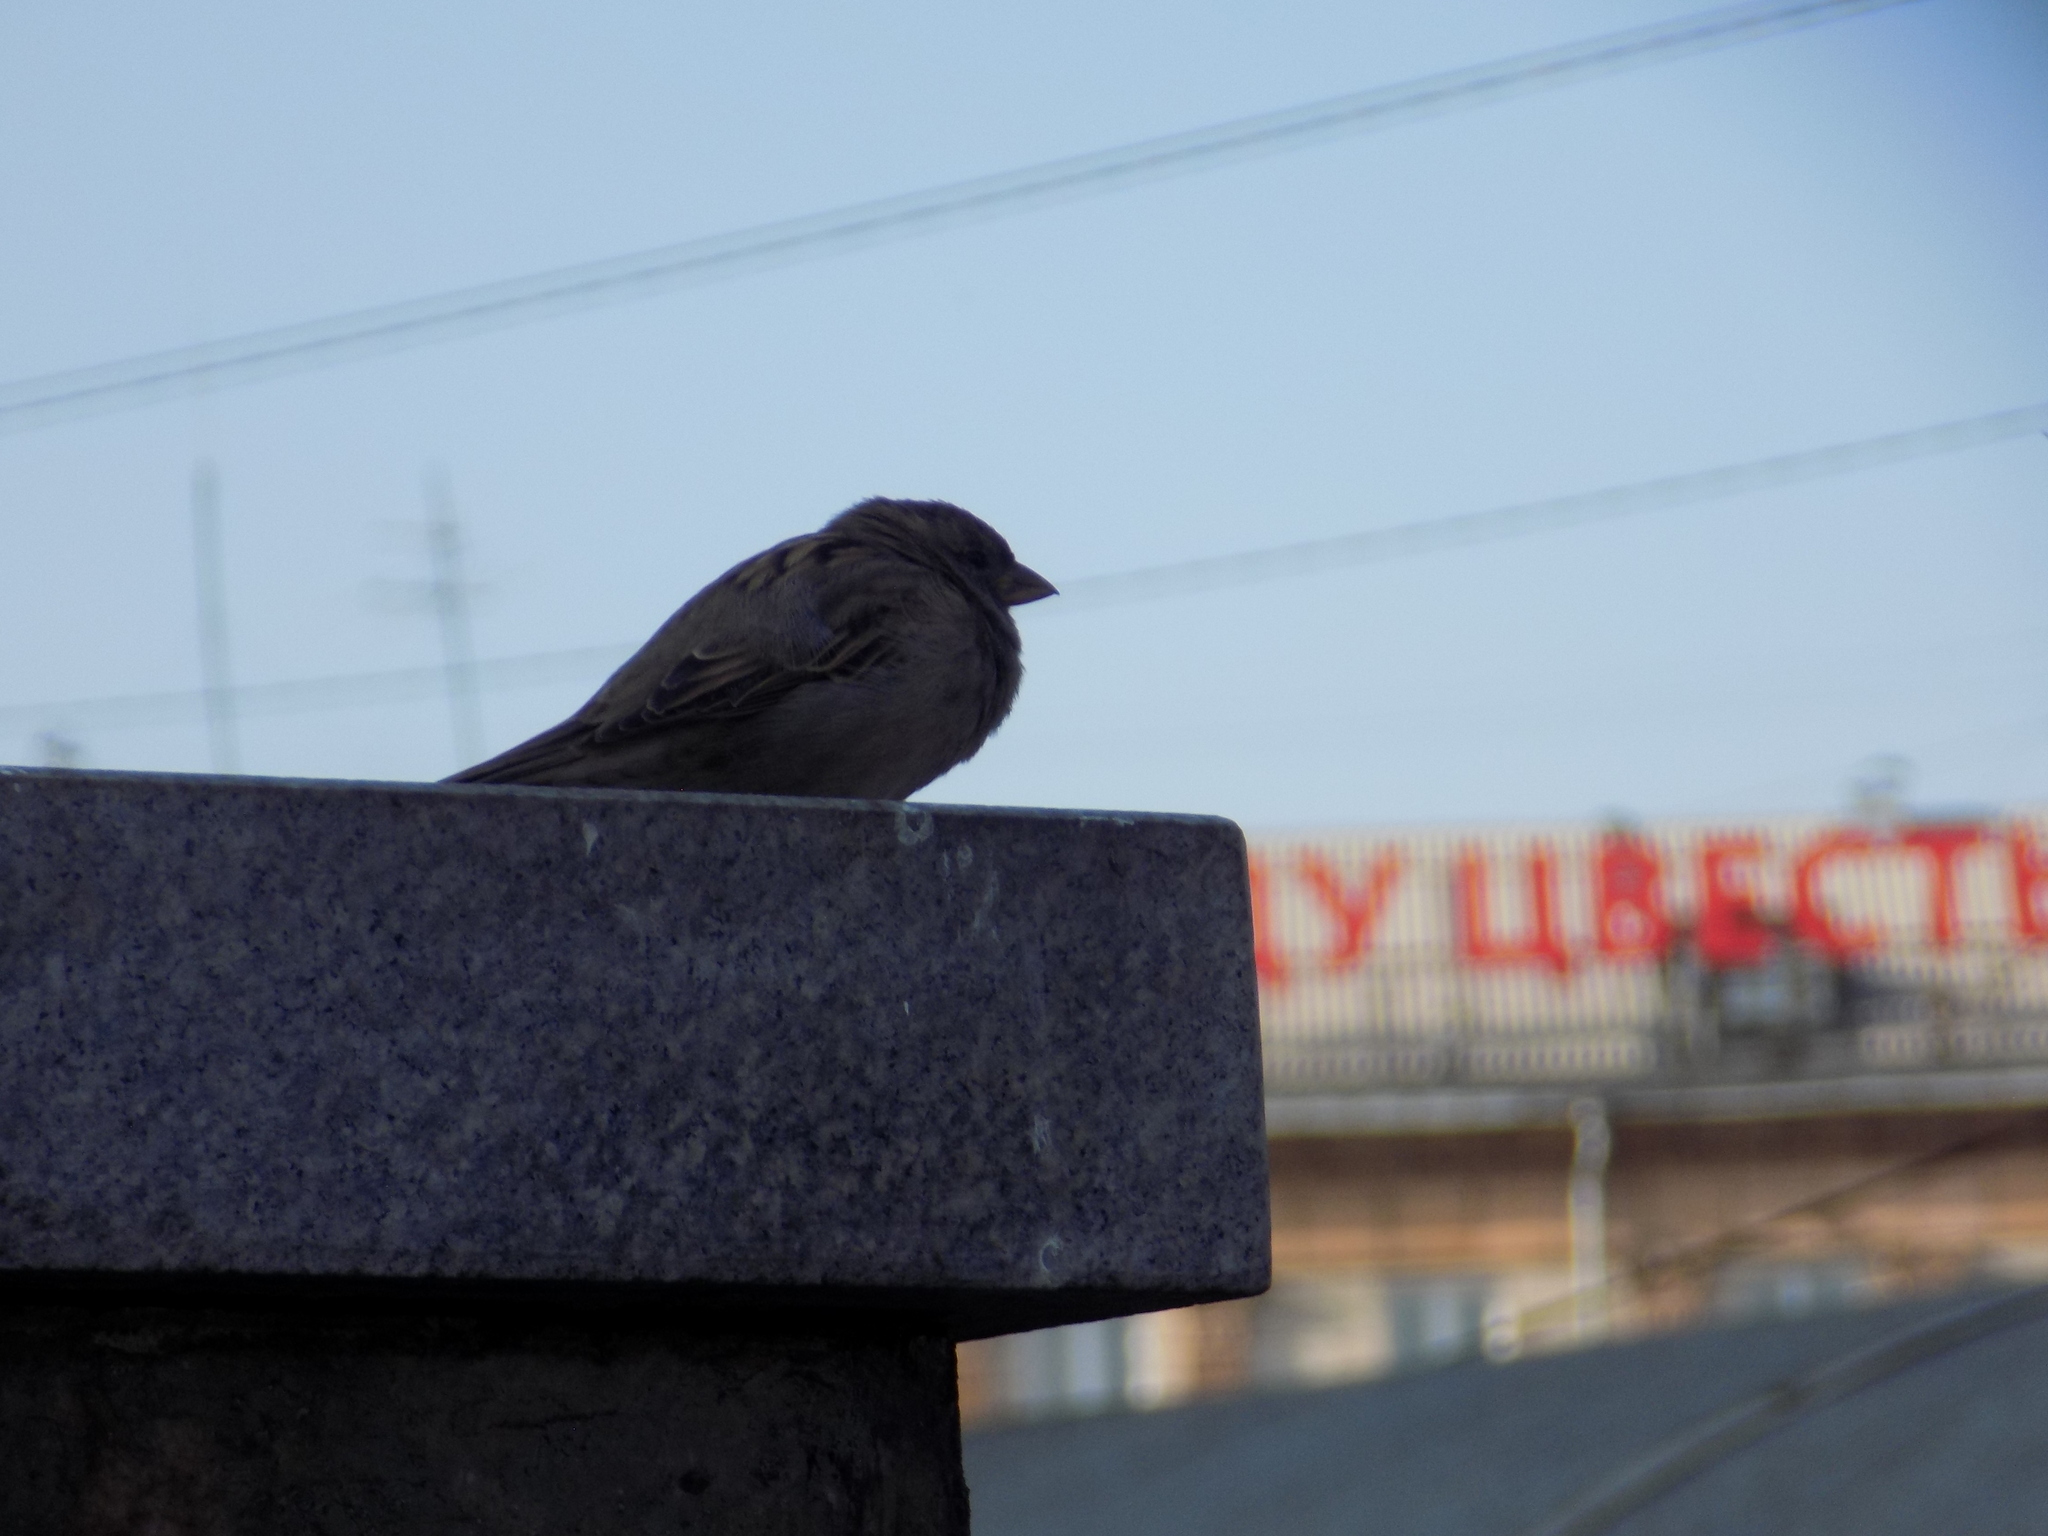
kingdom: Animalia
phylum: Chordata
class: Aves
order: Passeriformes
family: Passeridae
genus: Passer
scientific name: Passer domesticus
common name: House sparrow
